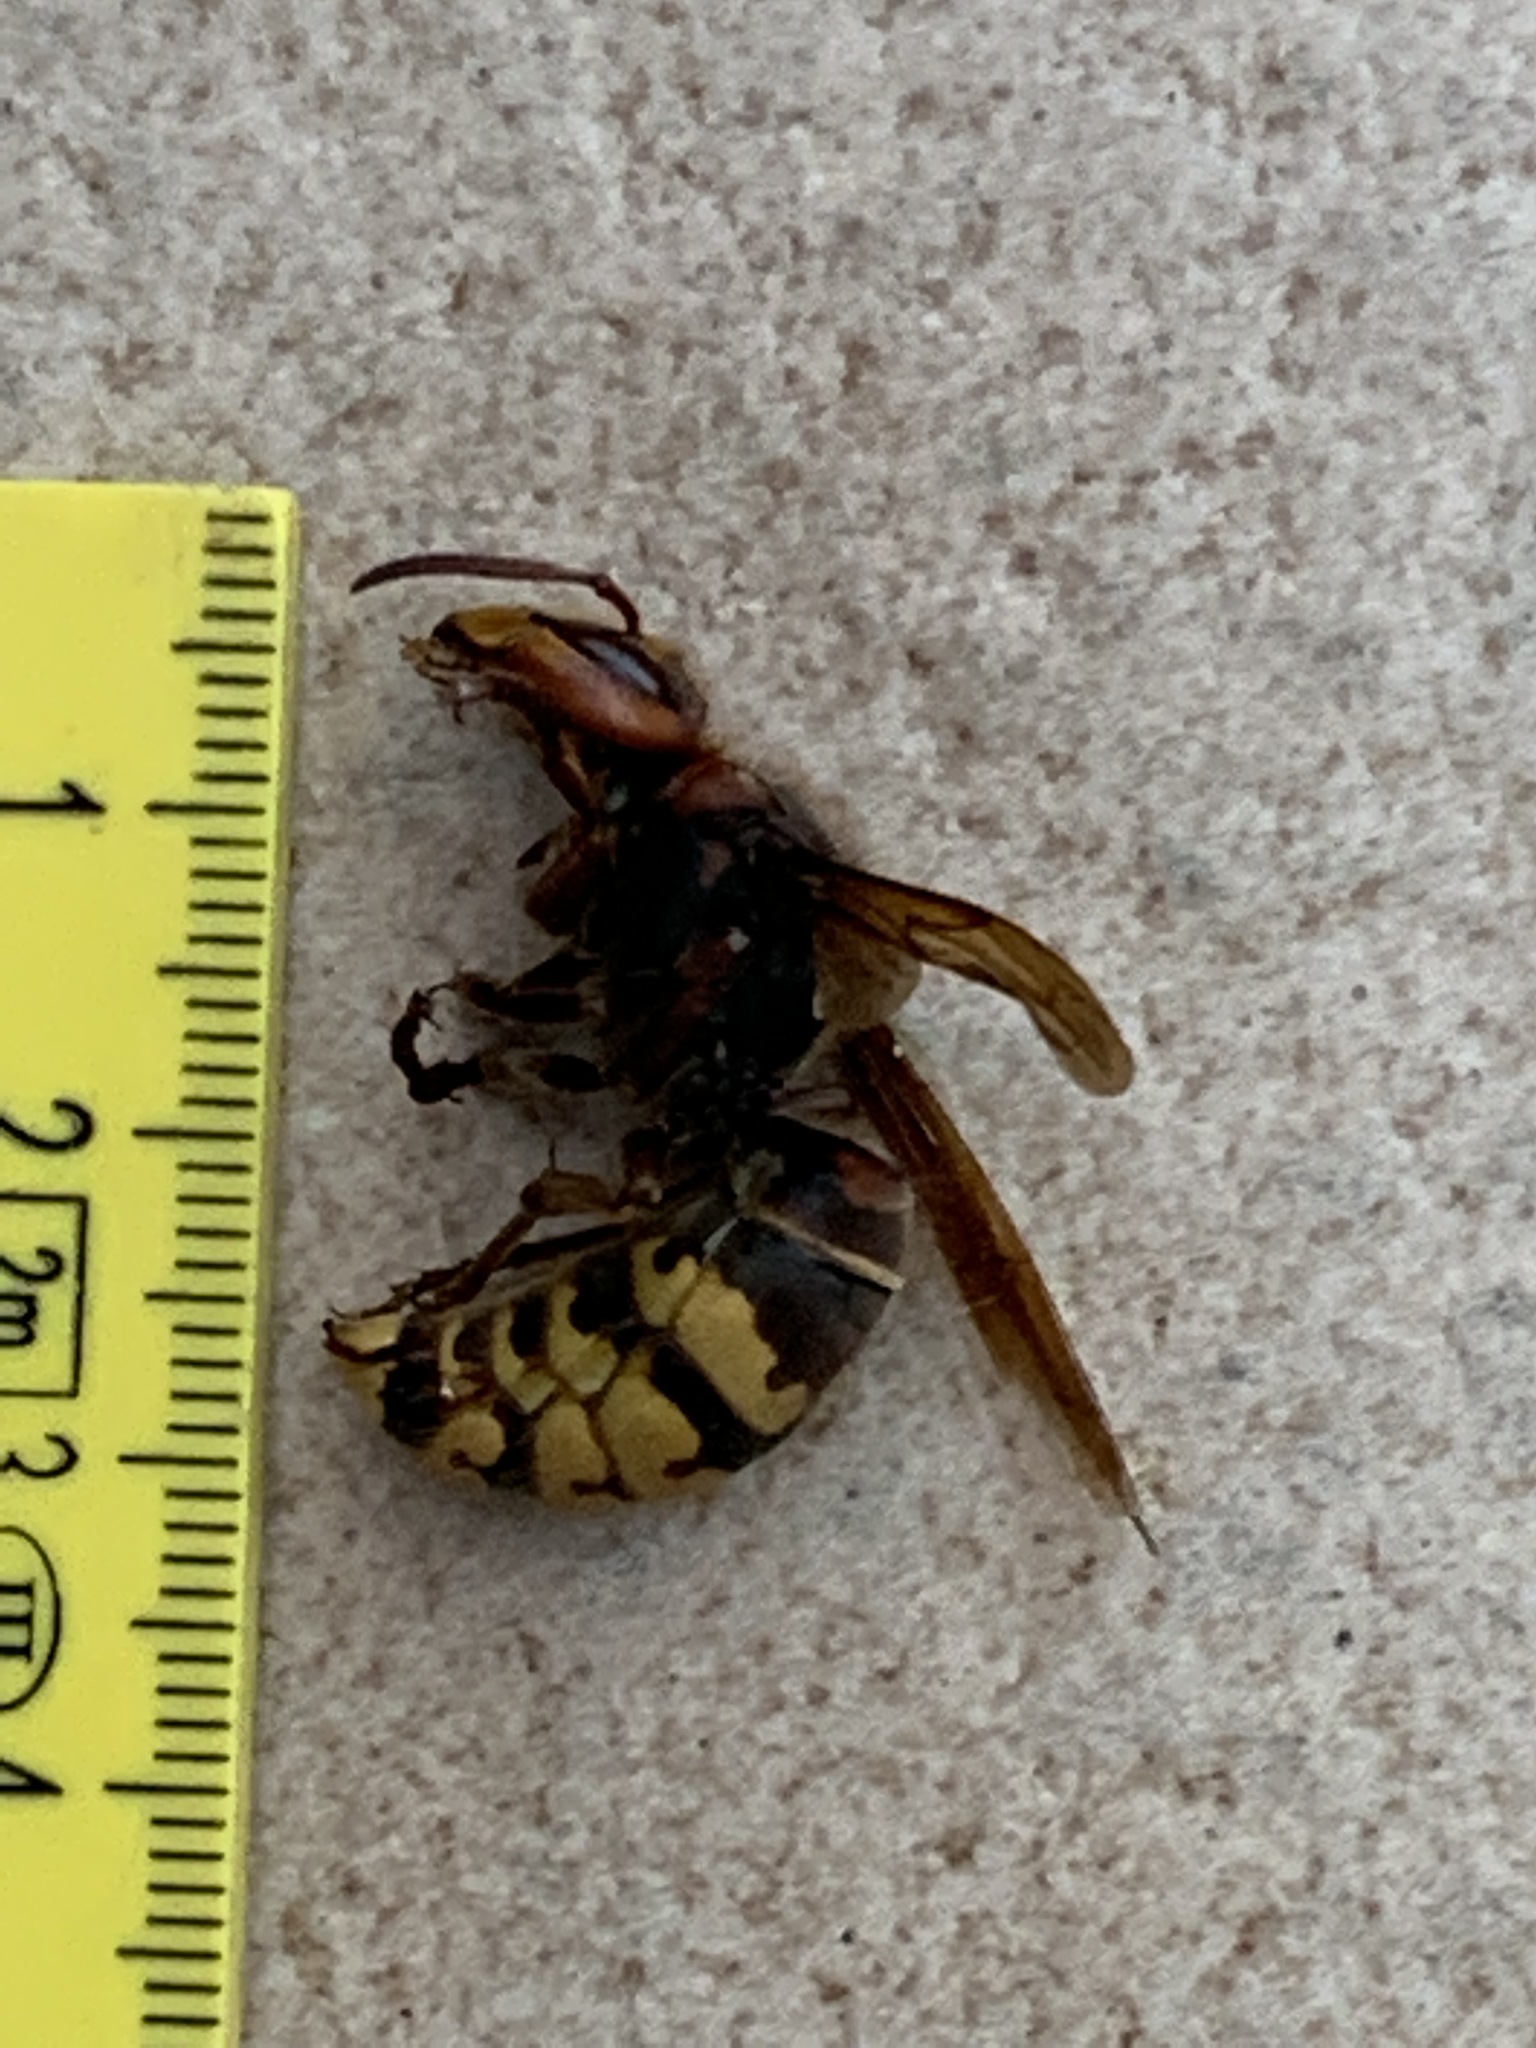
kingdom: Animalia
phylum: Arthropoda
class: Insecta
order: Hymenoptera
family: Vespidae
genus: Vespa
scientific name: Vespa crabro
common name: Hornet
